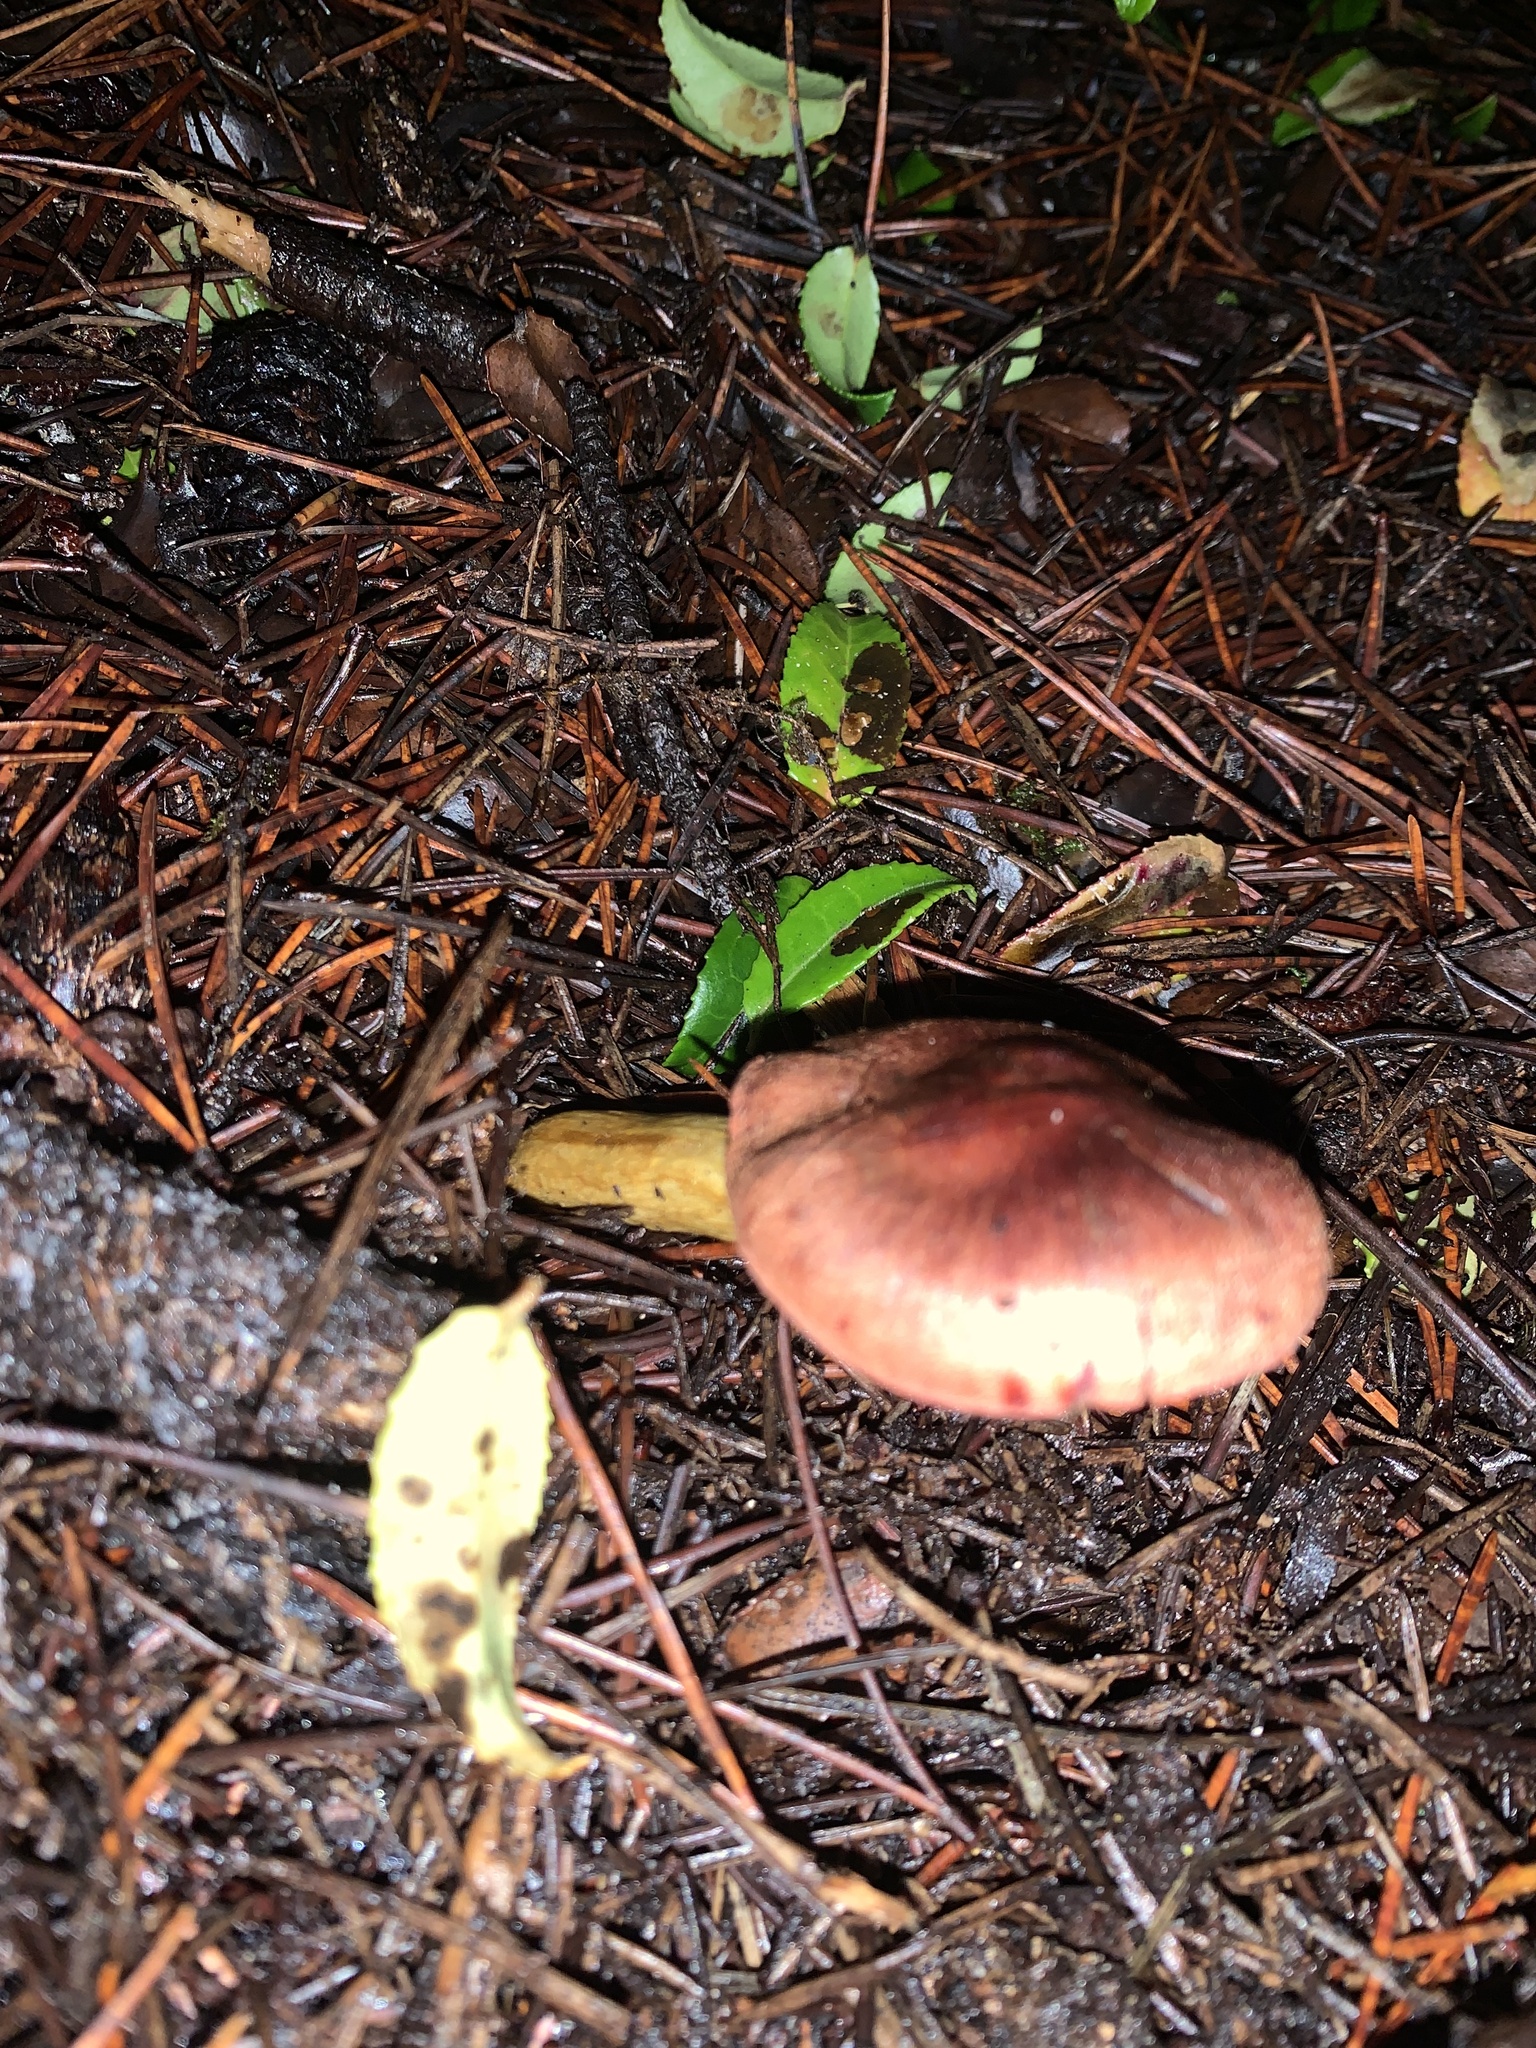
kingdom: Fungi
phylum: Basidiomycota
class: Agaricomycetes
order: Agaricales
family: Cortinariaceae
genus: Cortinarius
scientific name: Cortinarius smithii
